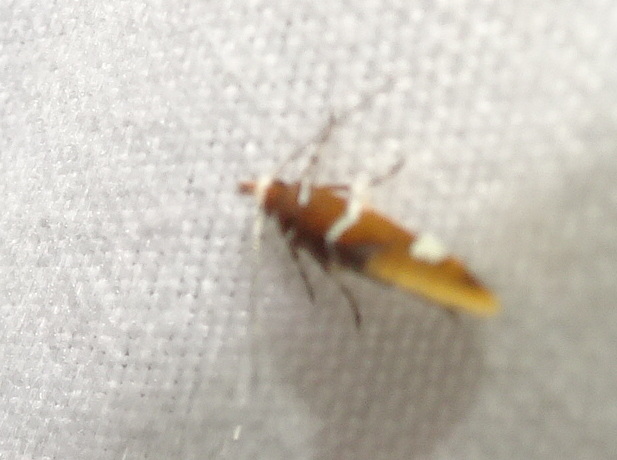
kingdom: Animalia
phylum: Arthropoda
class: Insecta
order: Lepidoptera
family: Oecophoridae
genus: Promalactis
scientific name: Promalactis suzukiella
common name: Moth
